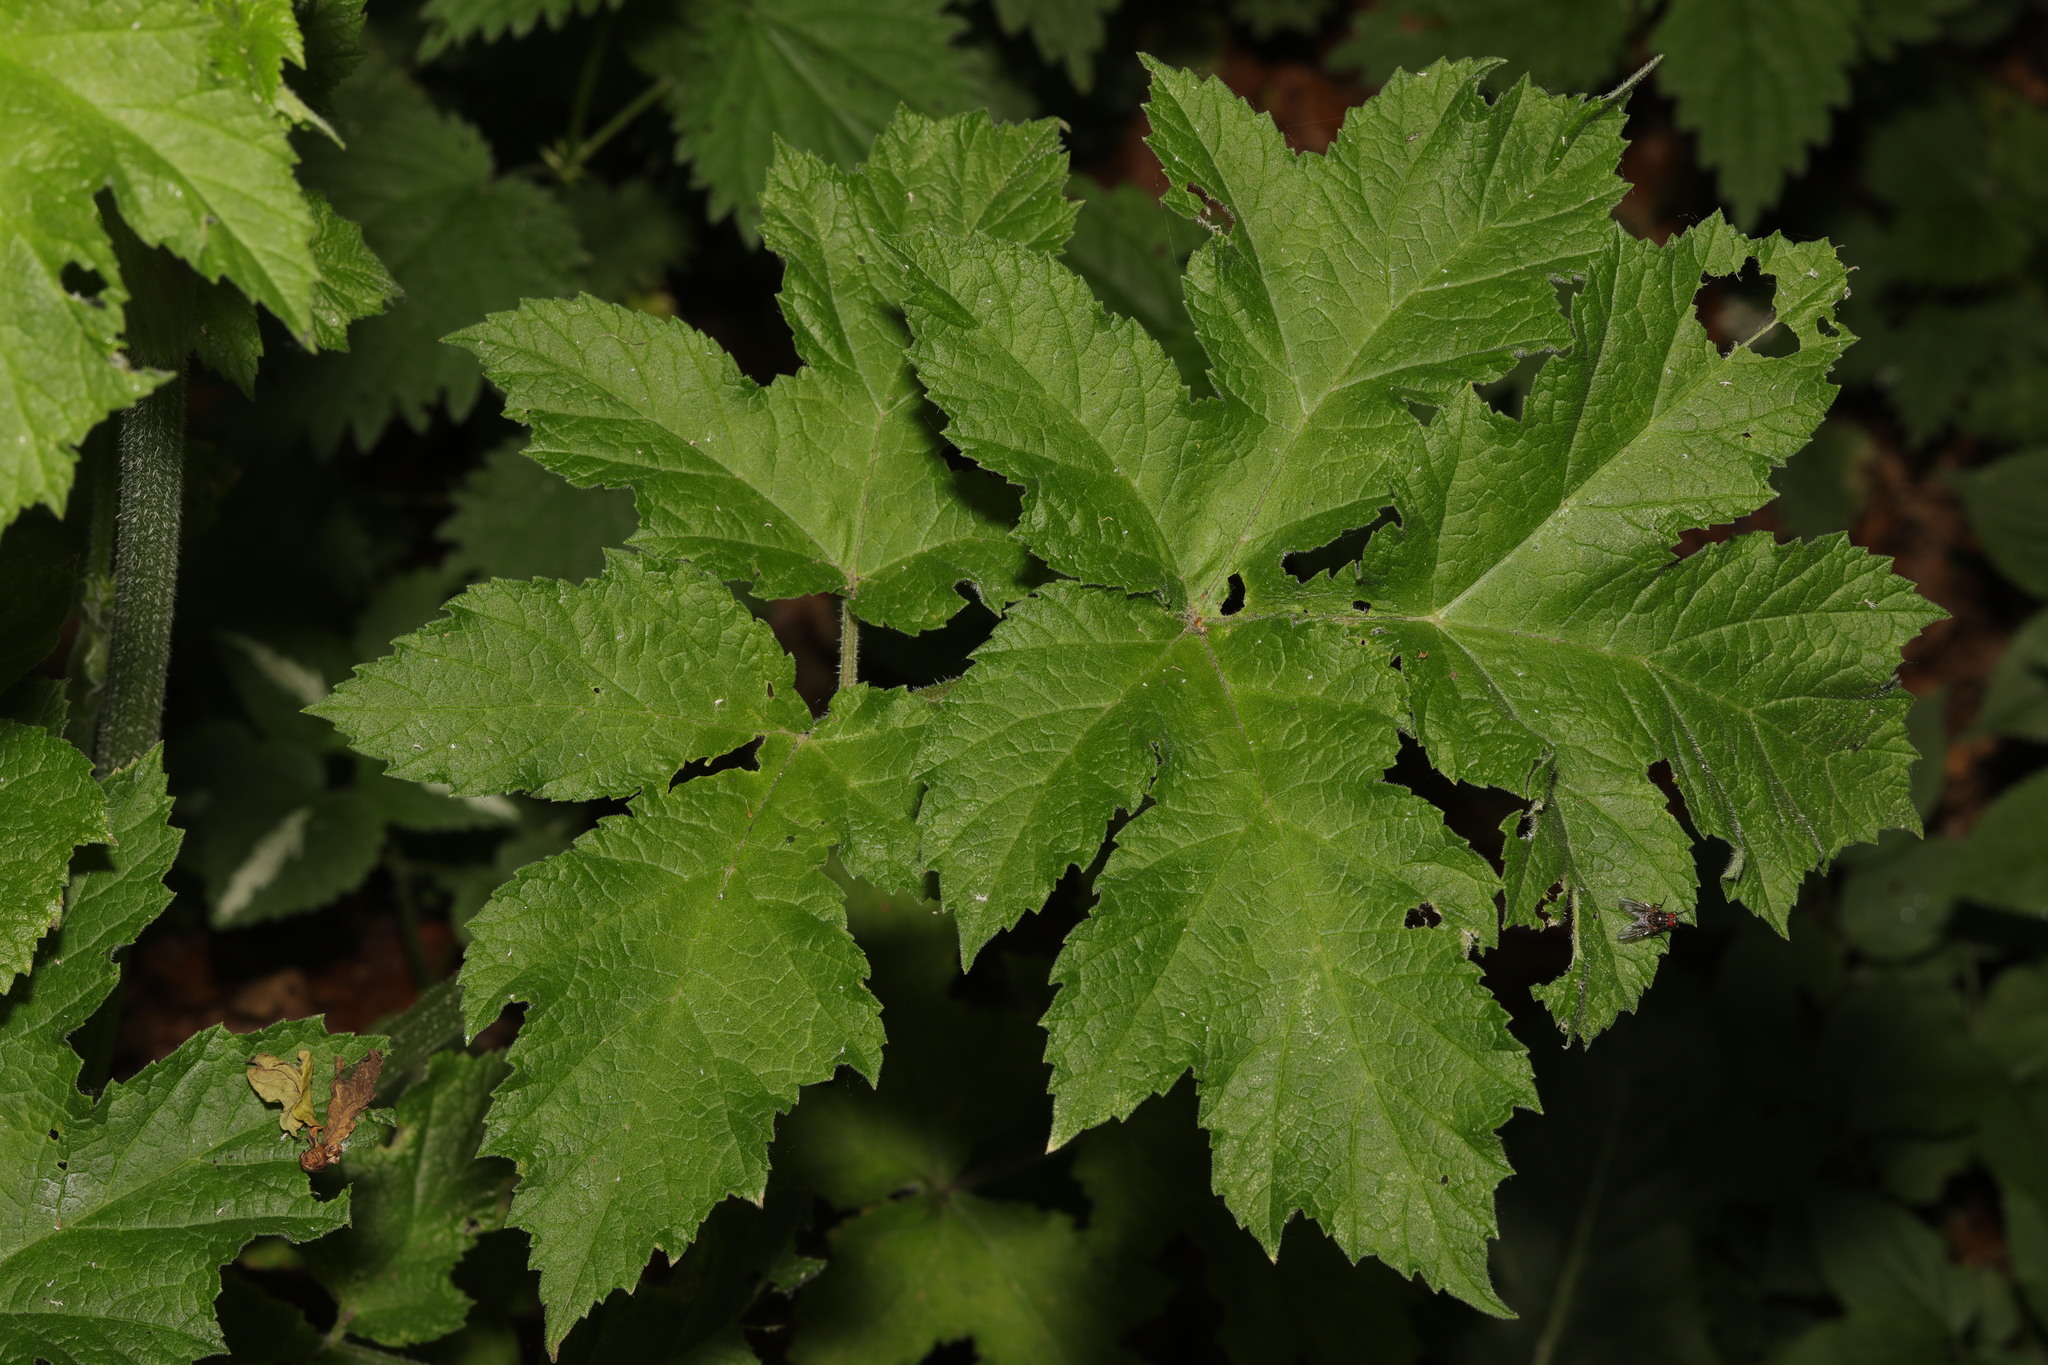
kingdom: Plantae
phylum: Tracheophyta
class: Magnoliopsida
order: Apiales
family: Apiaceae
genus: Heracleum
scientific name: Heracleum sphondylium
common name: Hogweed
